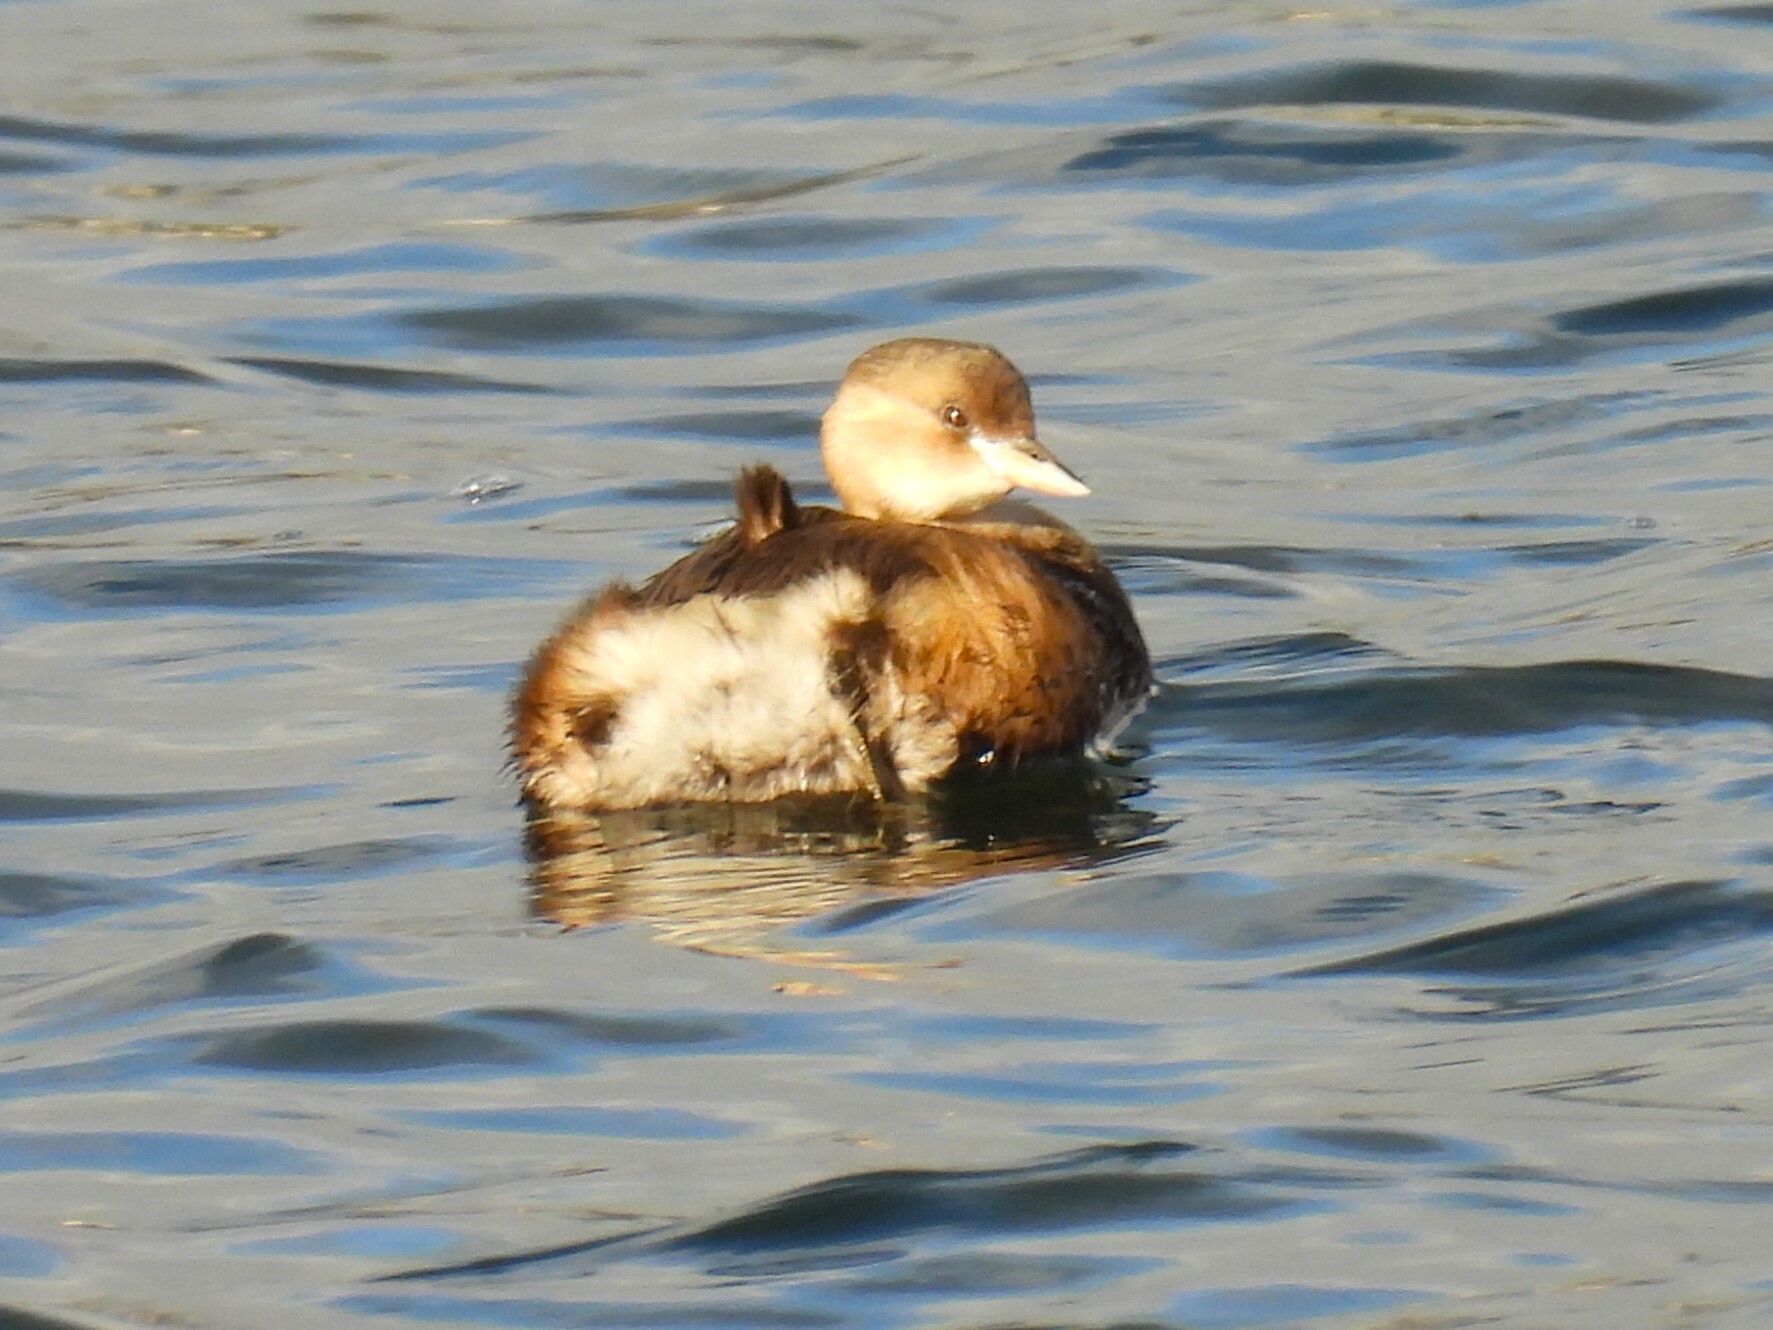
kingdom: Animalia
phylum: Chordata
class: Aves
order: Podicipediformes
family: Podicipedidae
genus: Tachybaptus
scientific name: Tachybaptus ruficollis
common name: Little grebe
